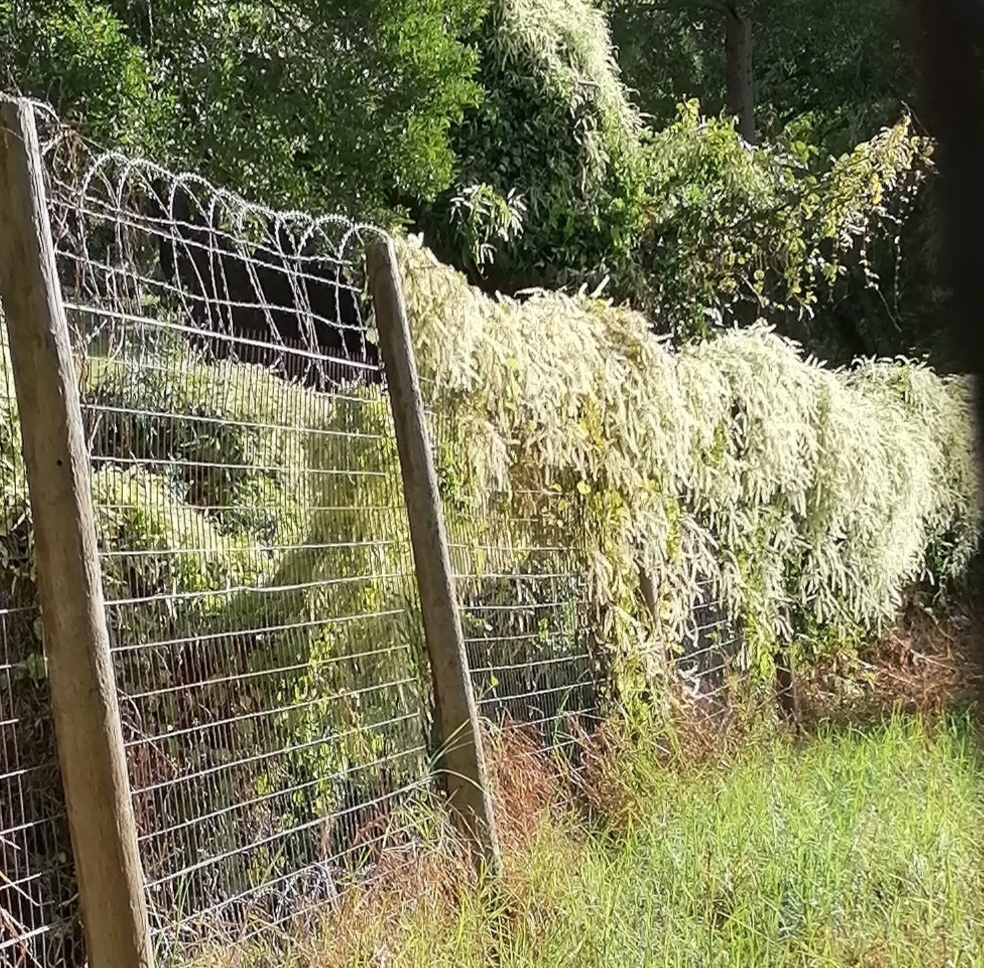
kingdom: Plantae
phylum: Tracheophyta
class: Magnoliopsida
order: Caryophyllales
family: Basellaceae
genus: Anredera
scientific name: Anredera cordifolia
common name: Heartleaf madeiravine
